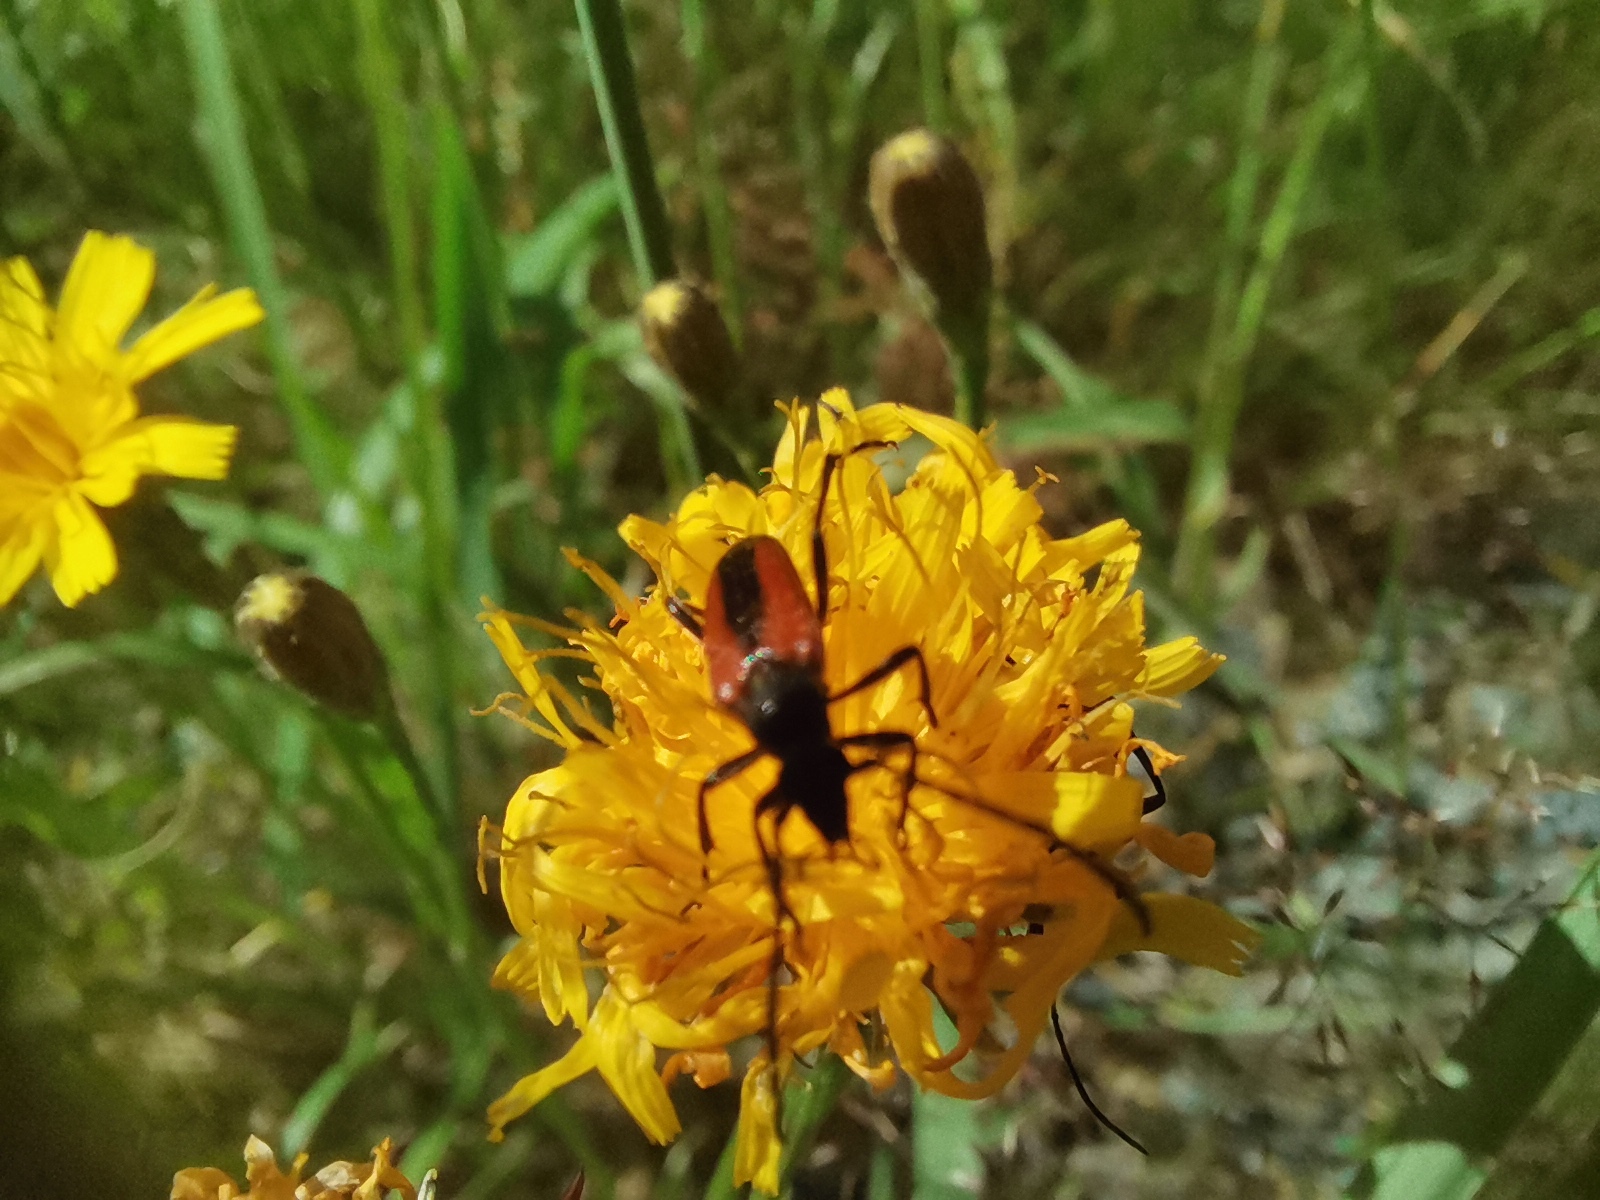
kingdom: Animalia
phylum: Arthropoda
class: Insecta
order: Coleoptera
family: Cerambycidae
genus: Stenurella
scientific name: Stenurella melanura
